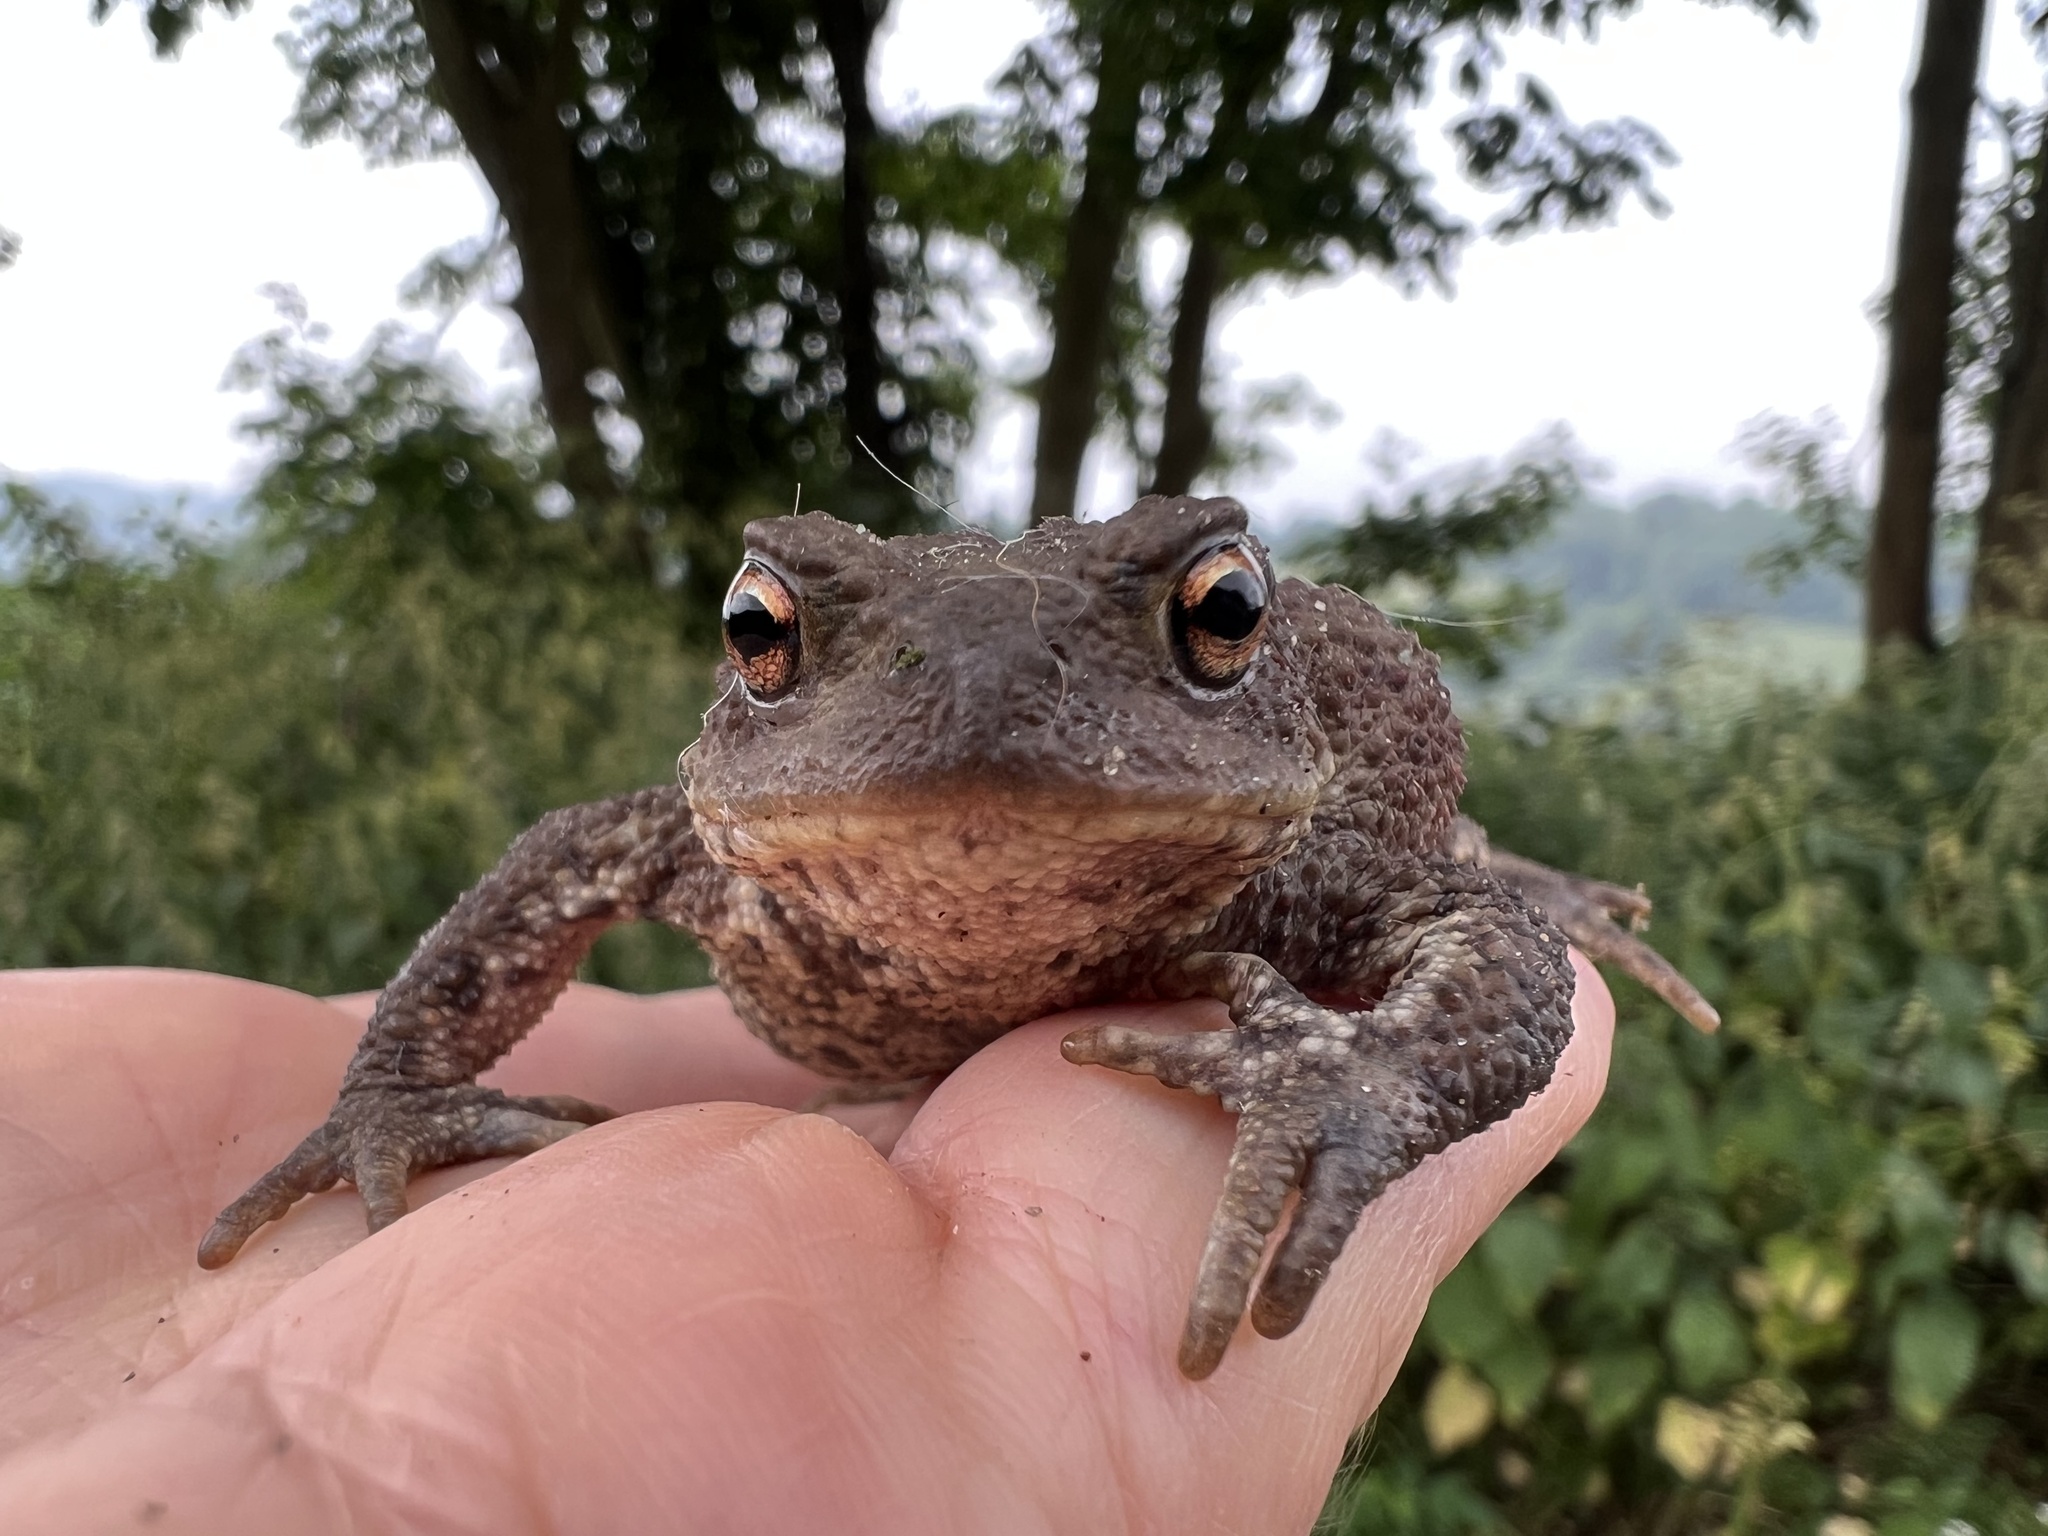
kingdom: Animalia
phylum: Chordata
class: Amphibia
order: Anura
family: Bufonidae
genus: Bufo
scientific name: Bufo bufo
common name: Common toad
